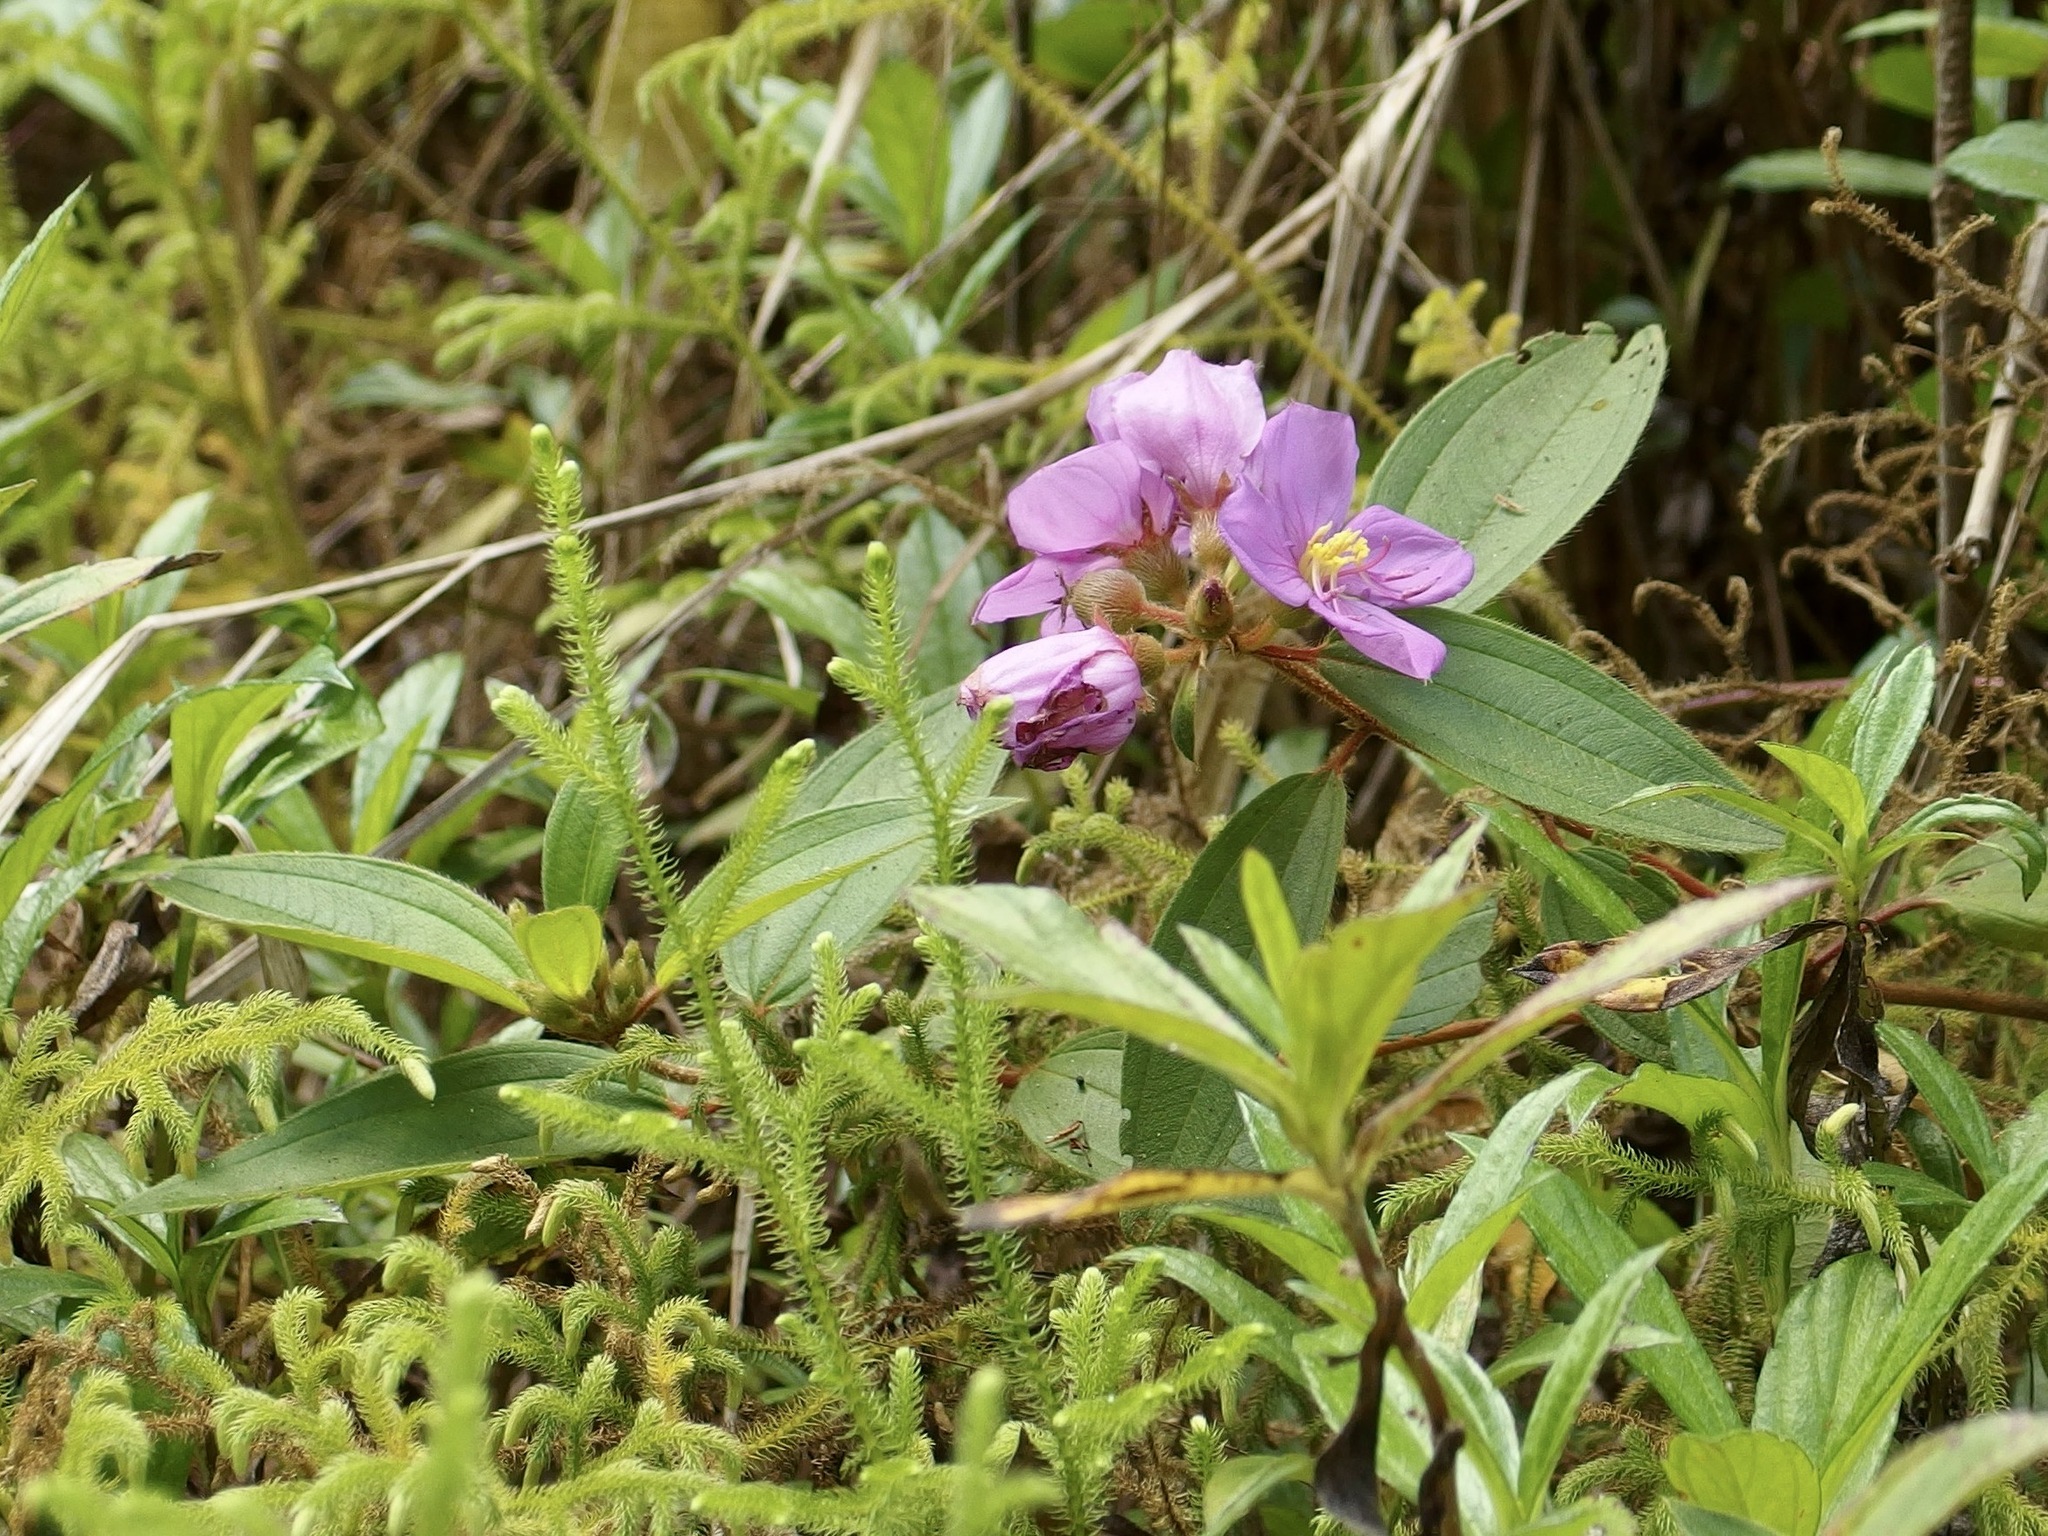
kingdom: Plantae
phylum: Tracheophyta
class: Magnoliopsida
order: Myrtales
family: Melastomataceae
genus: Melastoma
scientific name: Melastoma malabathricum
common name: Indian-rhododendron
